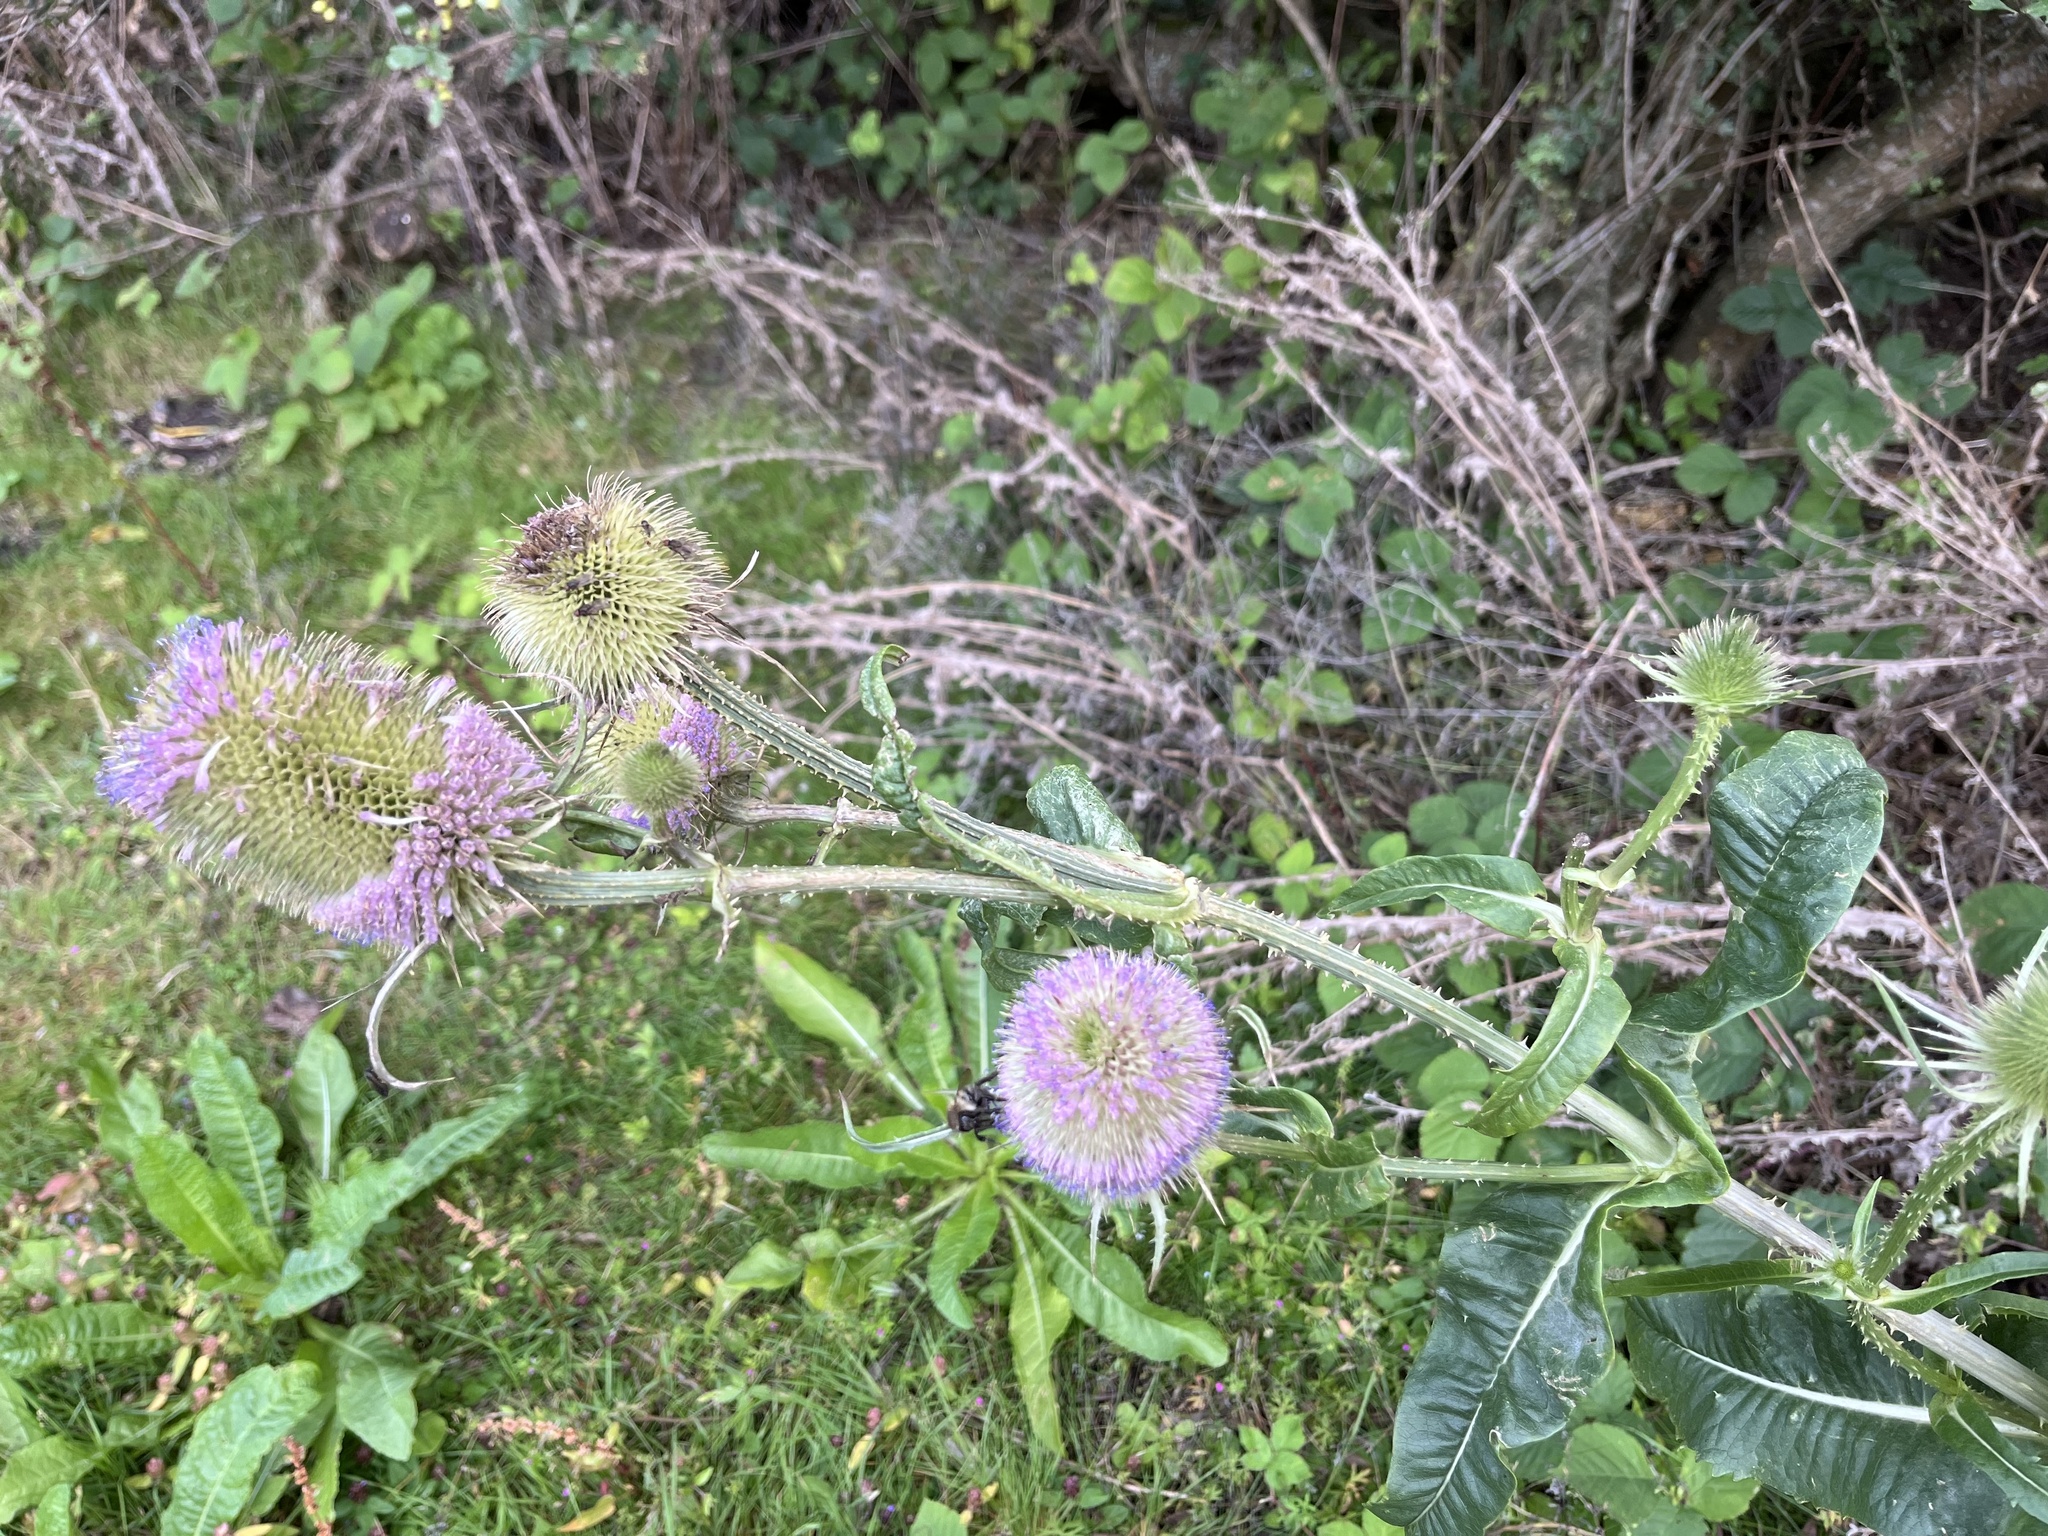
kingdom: Plantae
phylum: Tracheophyta
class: Magnoliopsida
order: Dipsacales
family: Caprifoliaceae
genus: Dipsacus
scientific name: Dipsacus fullonum
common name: Teasel
